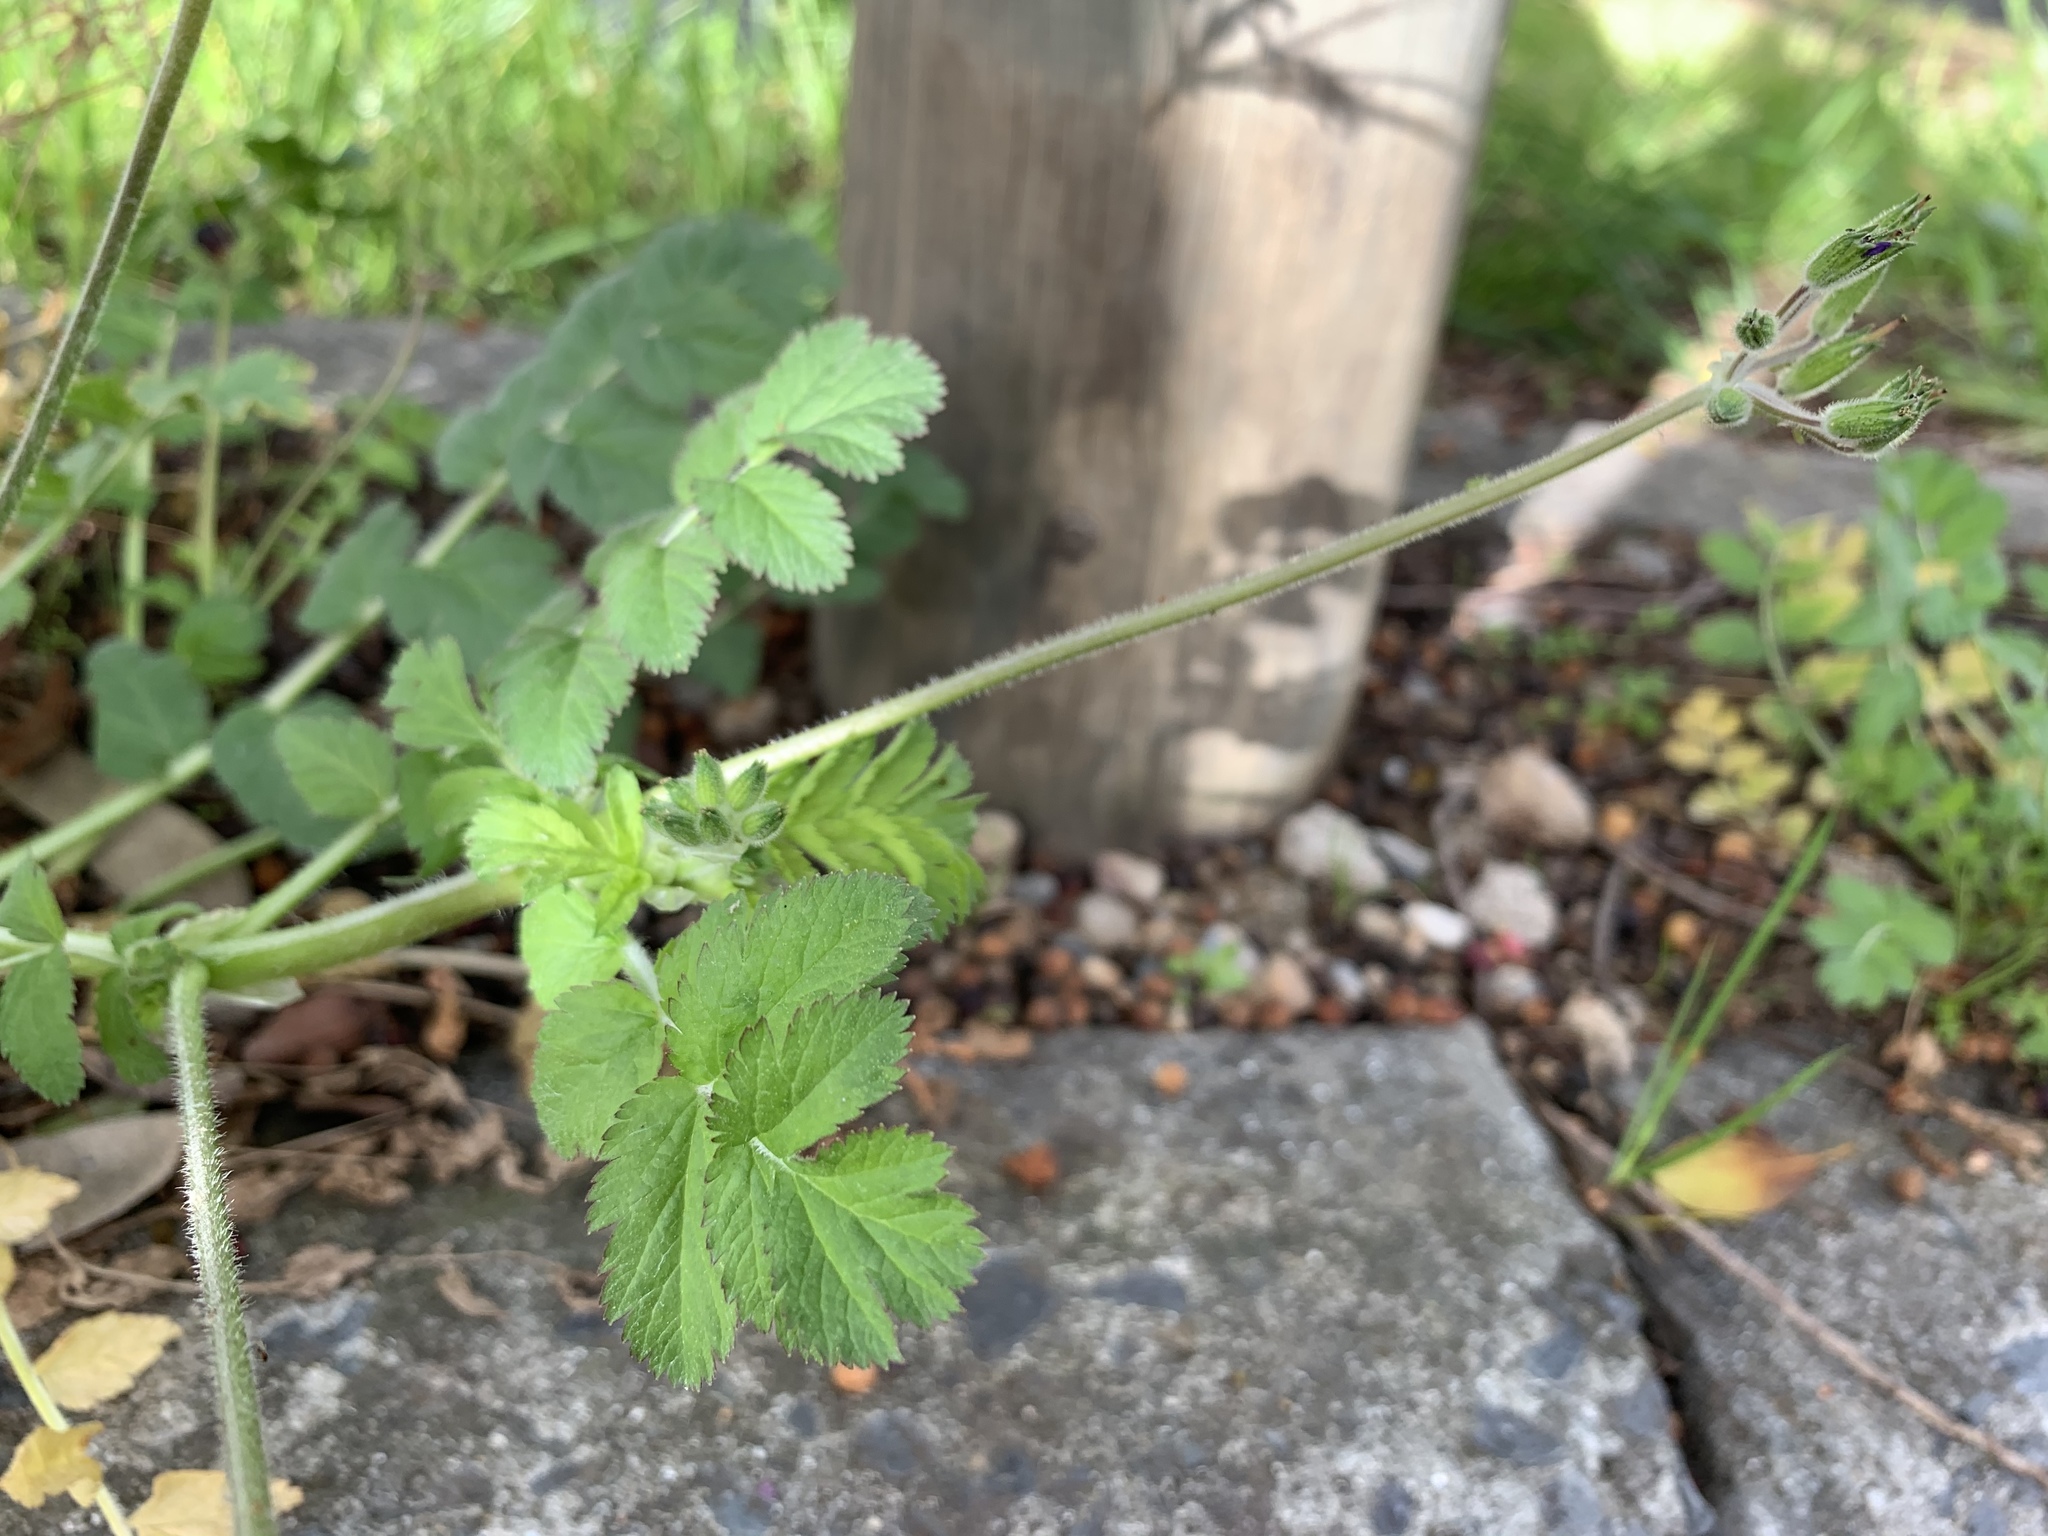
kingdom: Plantae
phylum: Tracheophyta
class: Magnoliopsida
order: Geraniales
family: Geraniaceae
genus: Erodium
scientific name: Erodium moschatum
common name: Musk stork's-bill
